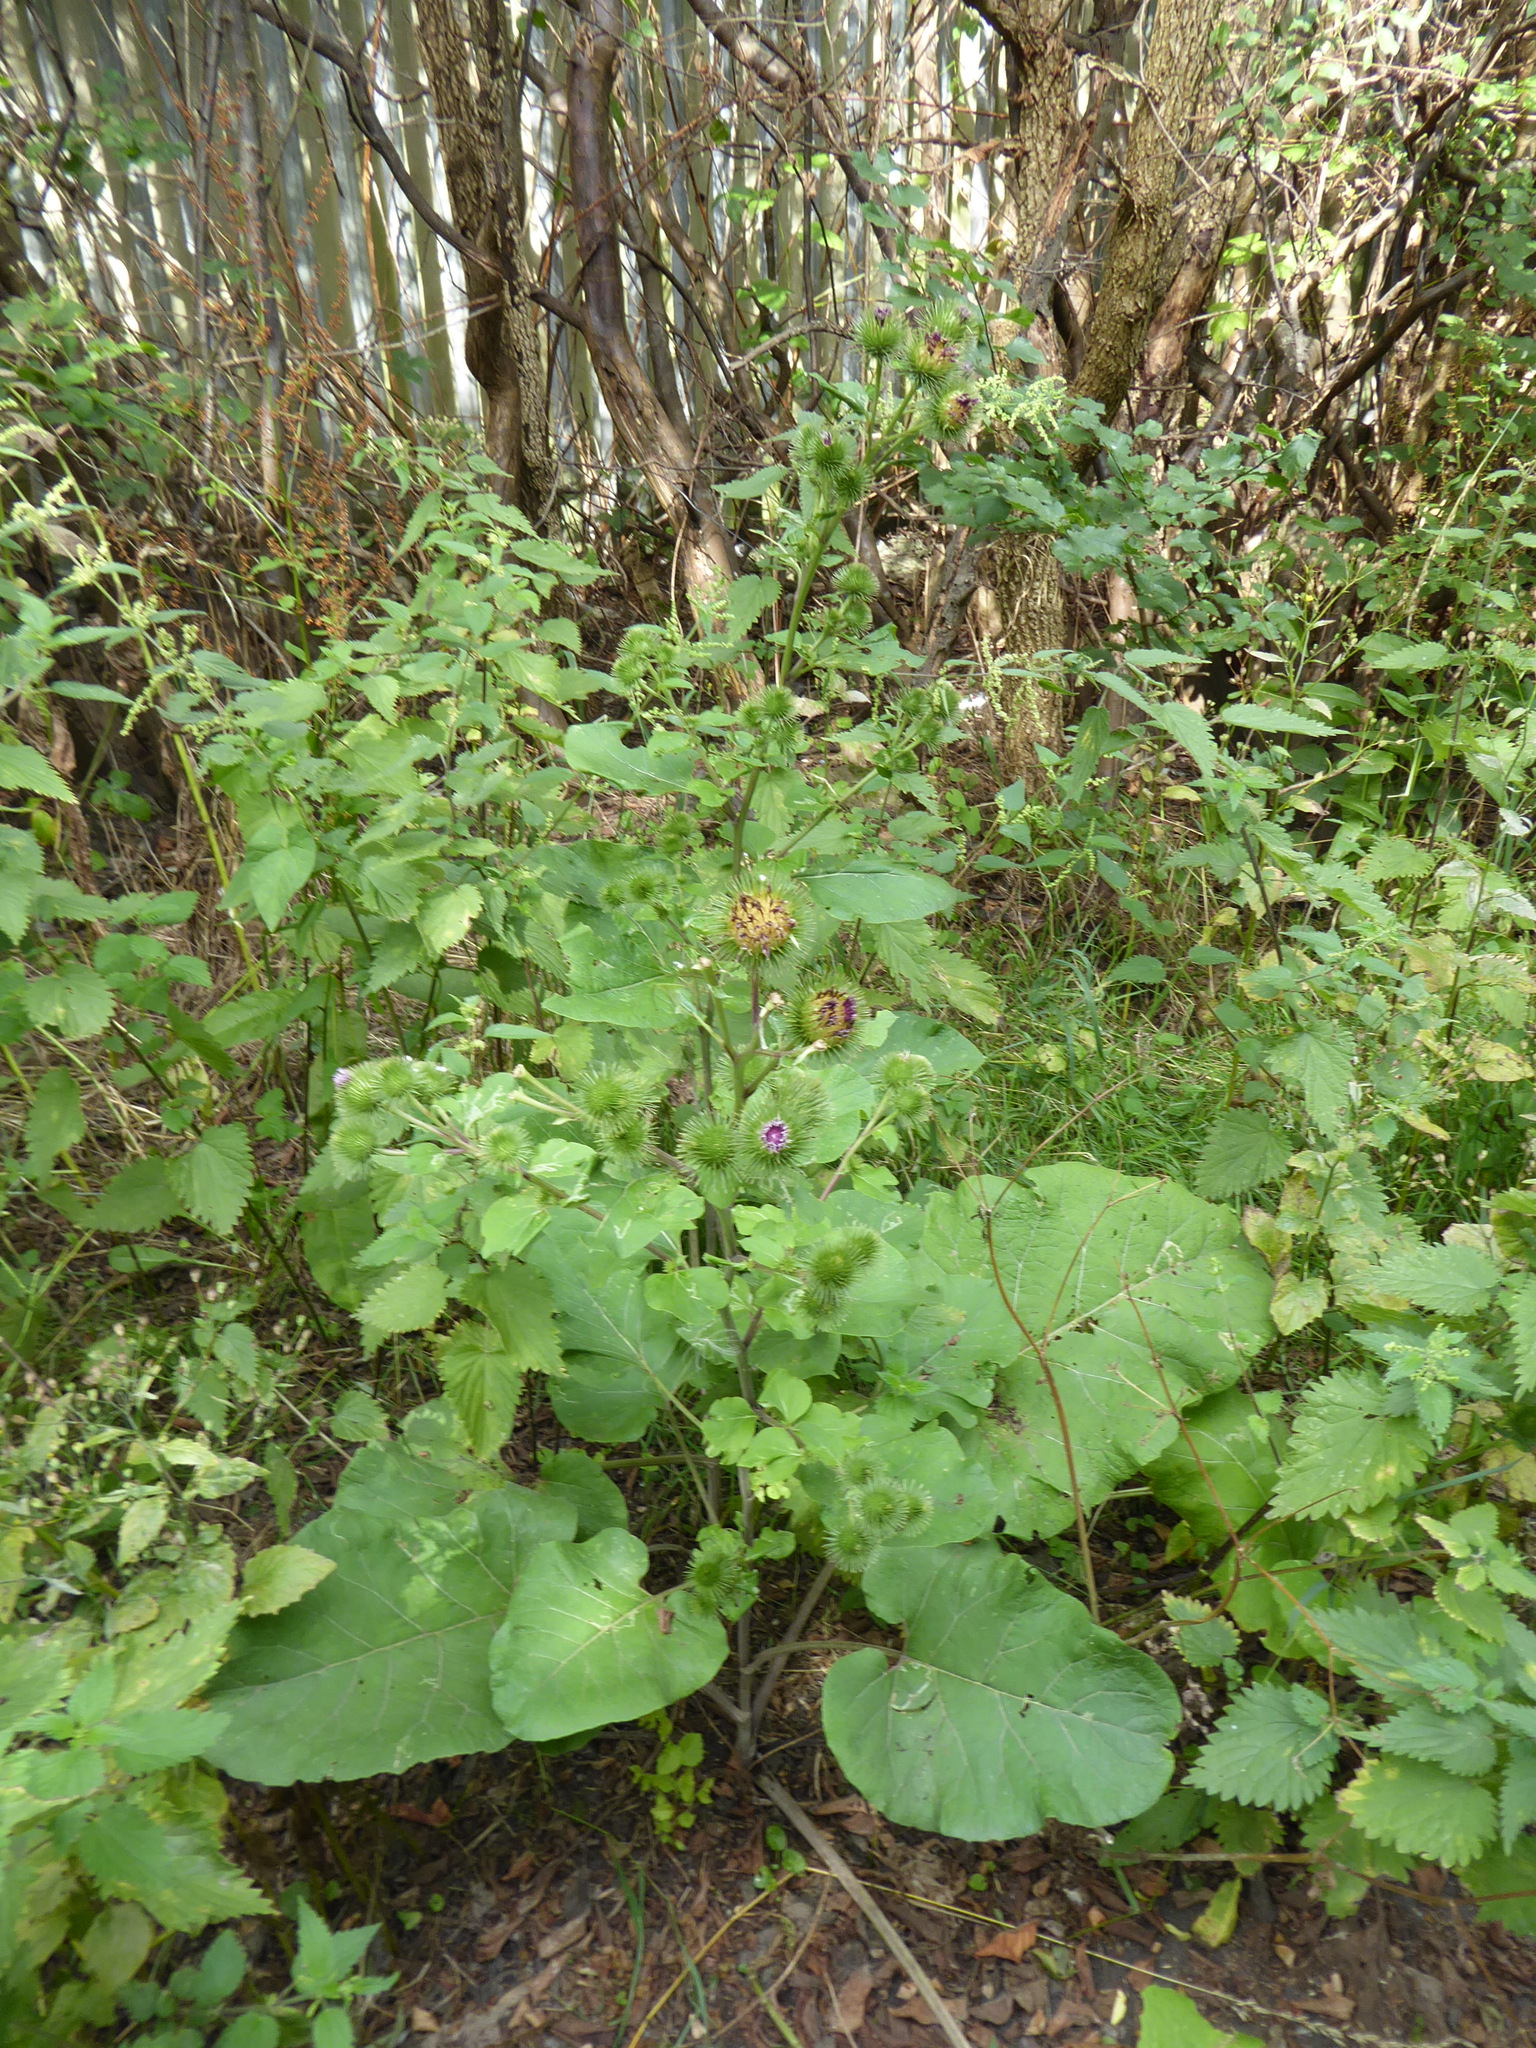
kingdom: Plantae
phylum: Tracheophyta
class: Magnoliopsida
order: Asterales
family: Asteraceae
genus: Arctium
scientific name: Arctium lappa
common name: Greater burdock
